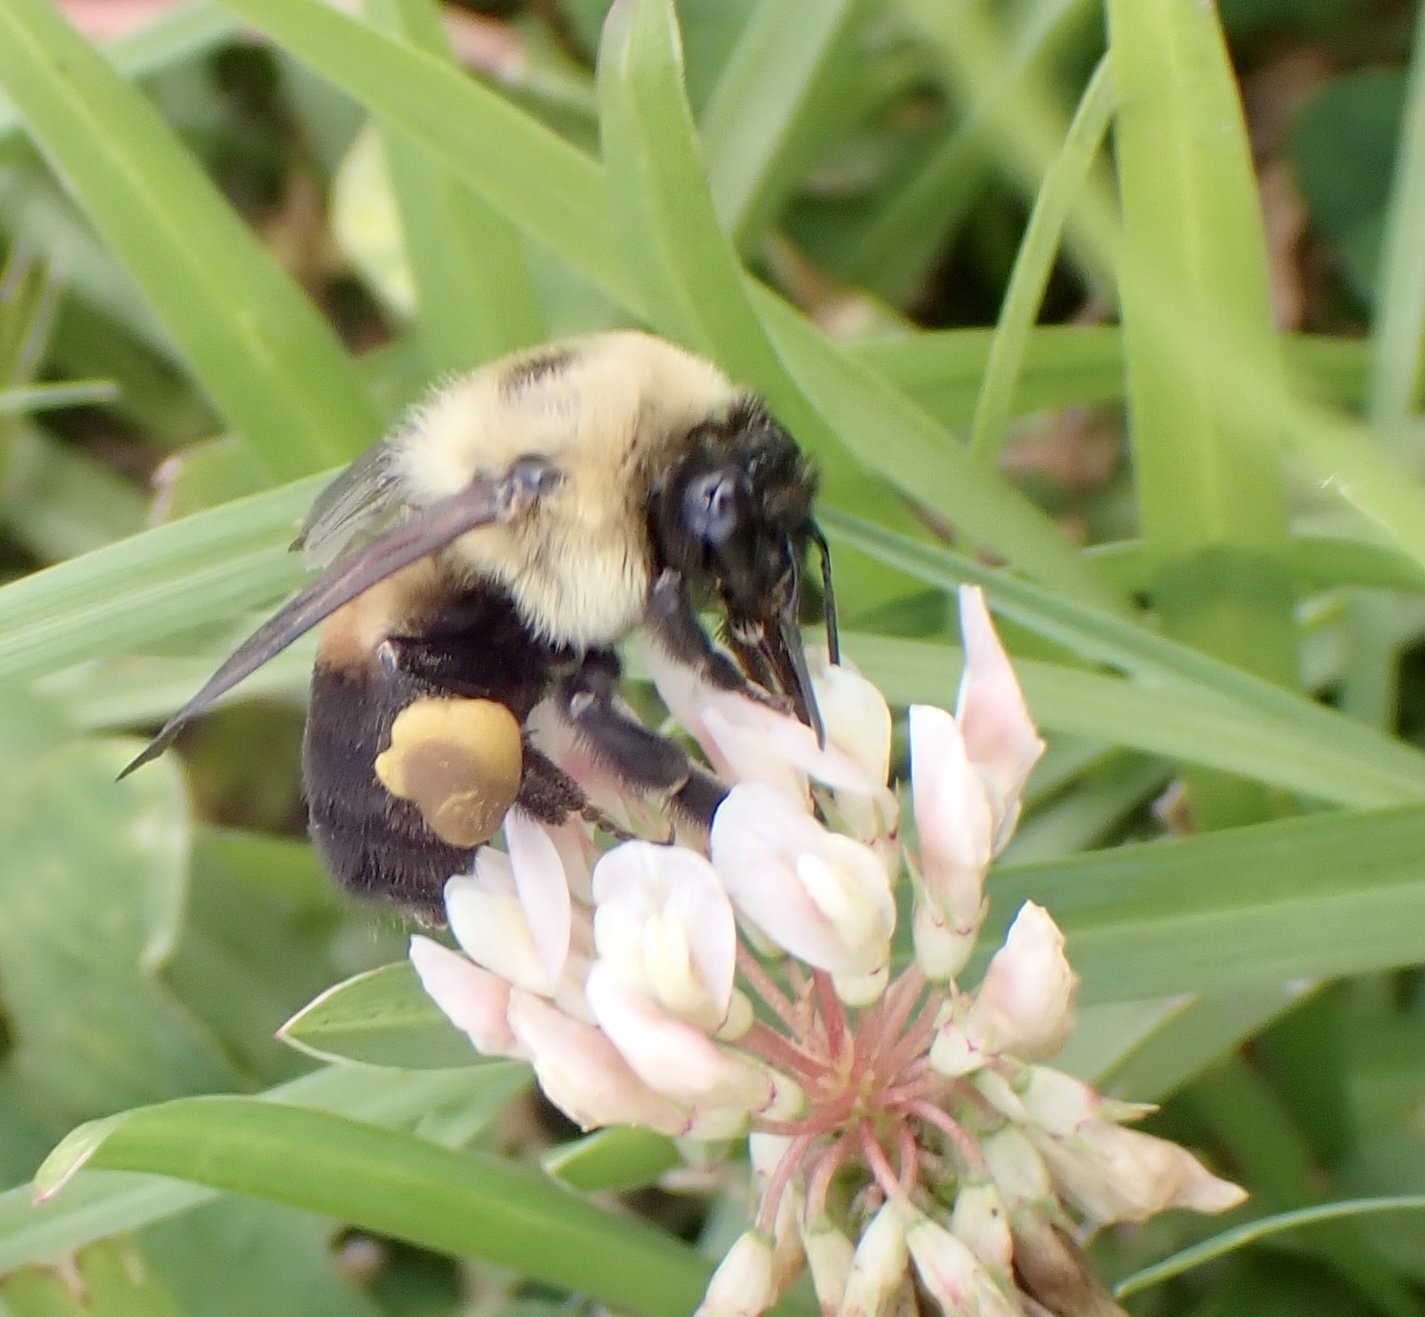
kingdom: Animalia
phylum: Arthropoda
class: Insecta
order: Hymenoptera
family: Apidae
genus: Bombus
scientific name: Bombus griseocollis
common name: Brown-belted bumble bee
